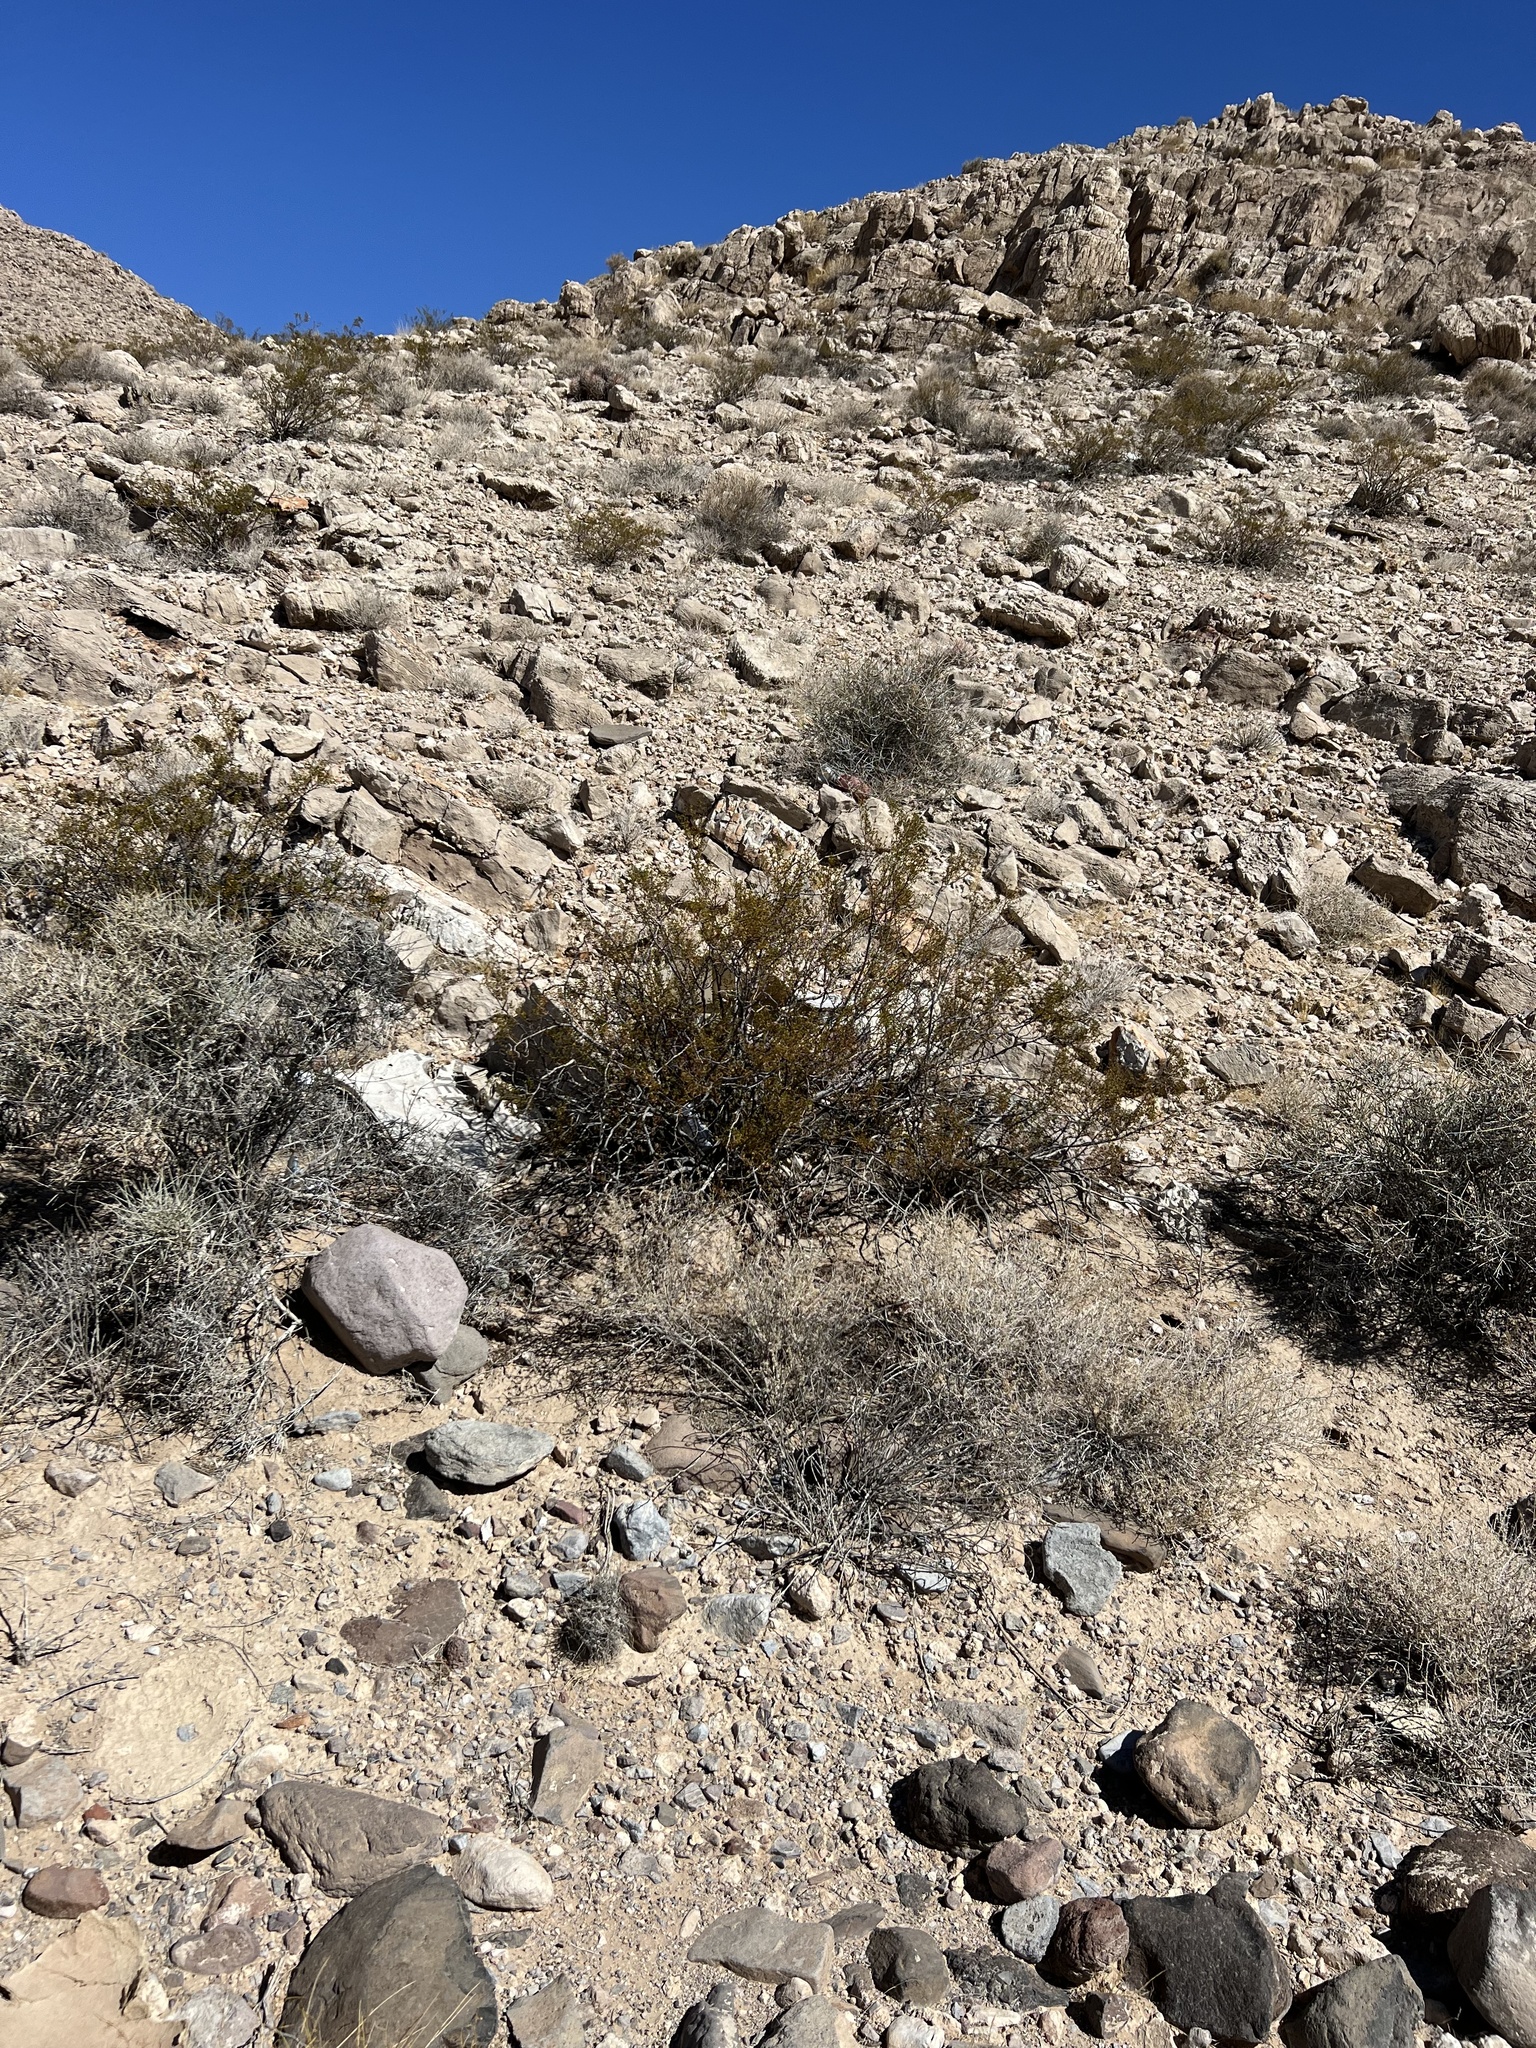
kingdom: Plantae
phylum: Tracheophyta
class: Magnoliopsida
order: Zygophyllales
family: Zygophyllaceae
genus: Larrea
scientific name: Larrea tridentata
